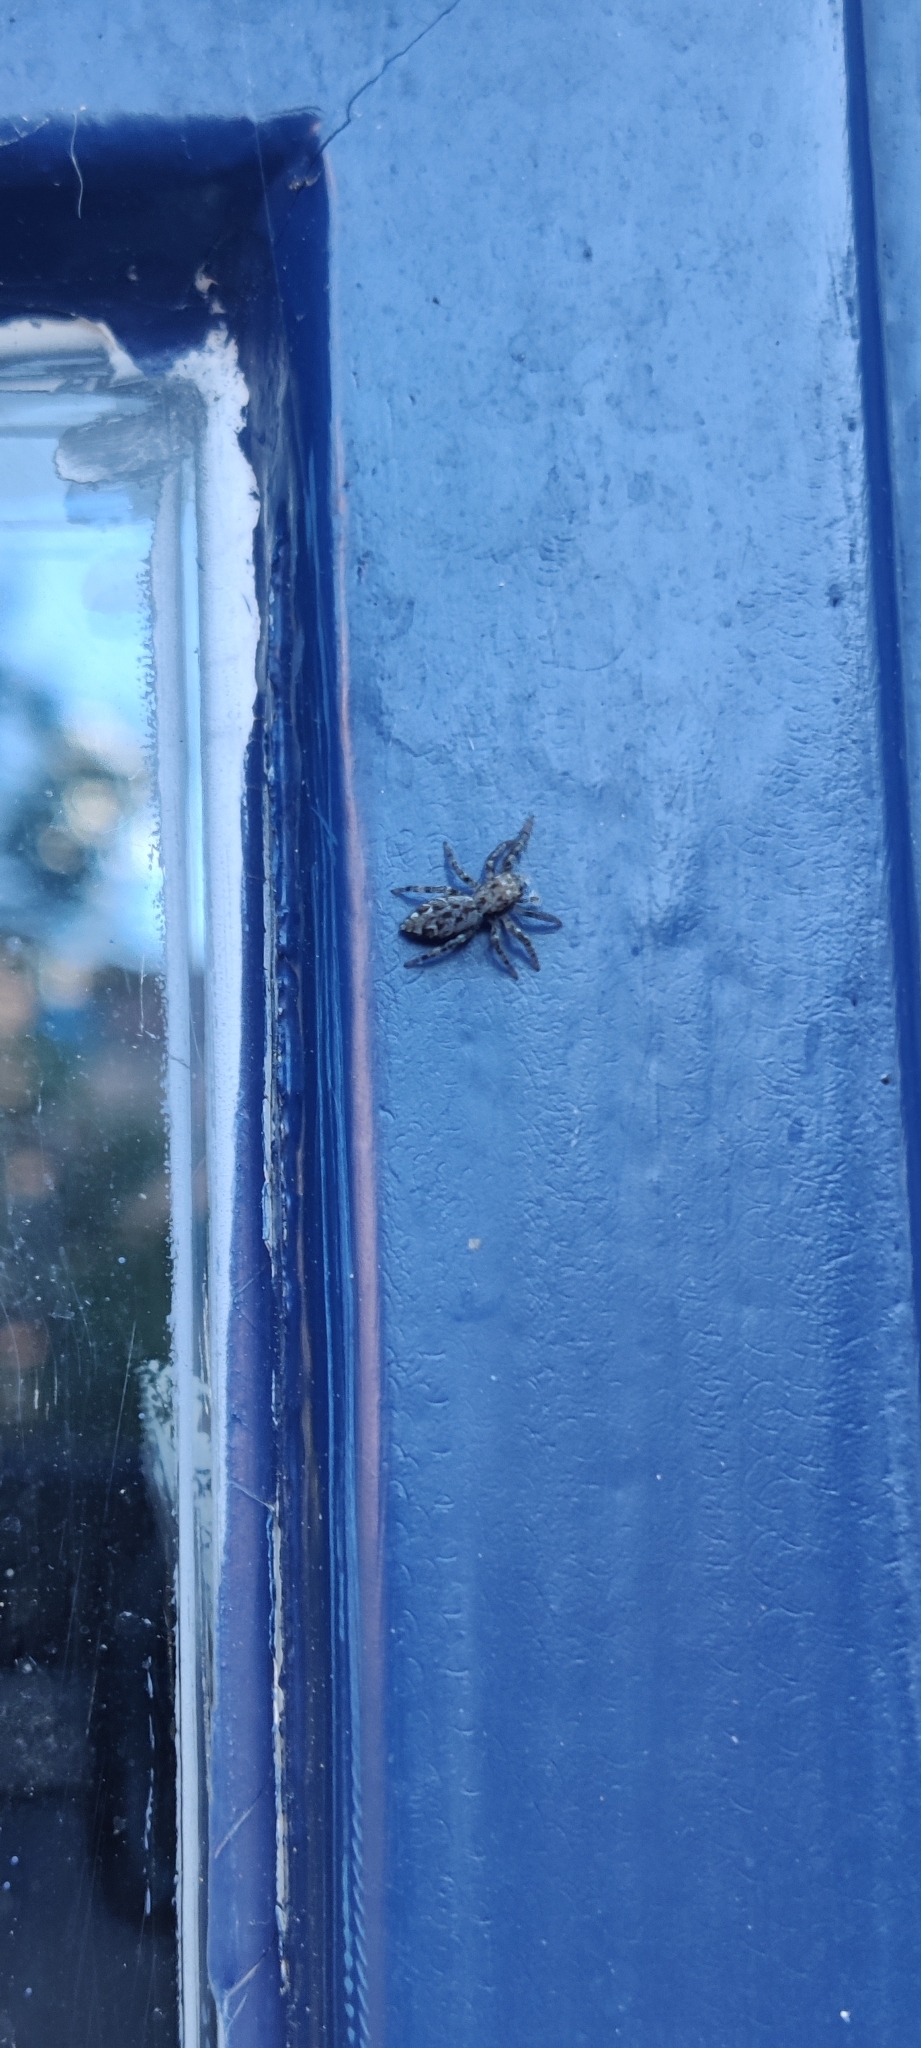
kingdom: Animalia
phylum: Arthropoda
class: Arachnida
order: Araneae
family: Salticidae
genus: Marpissa
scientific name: Marpissa muscosa
